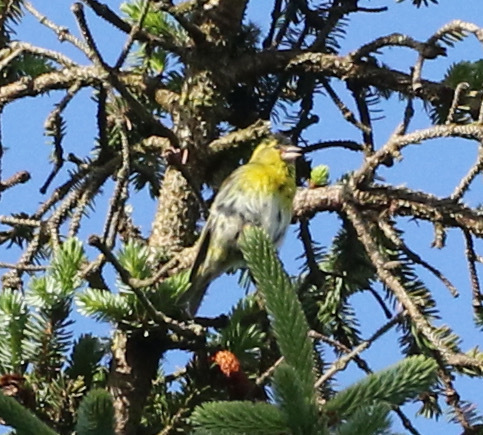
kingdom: Animalia
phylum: Chordata
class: Aves
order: Passeriformes
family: Fringillidae
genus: Spinus
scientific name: Spinus spinus
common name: Eurasian siskin
